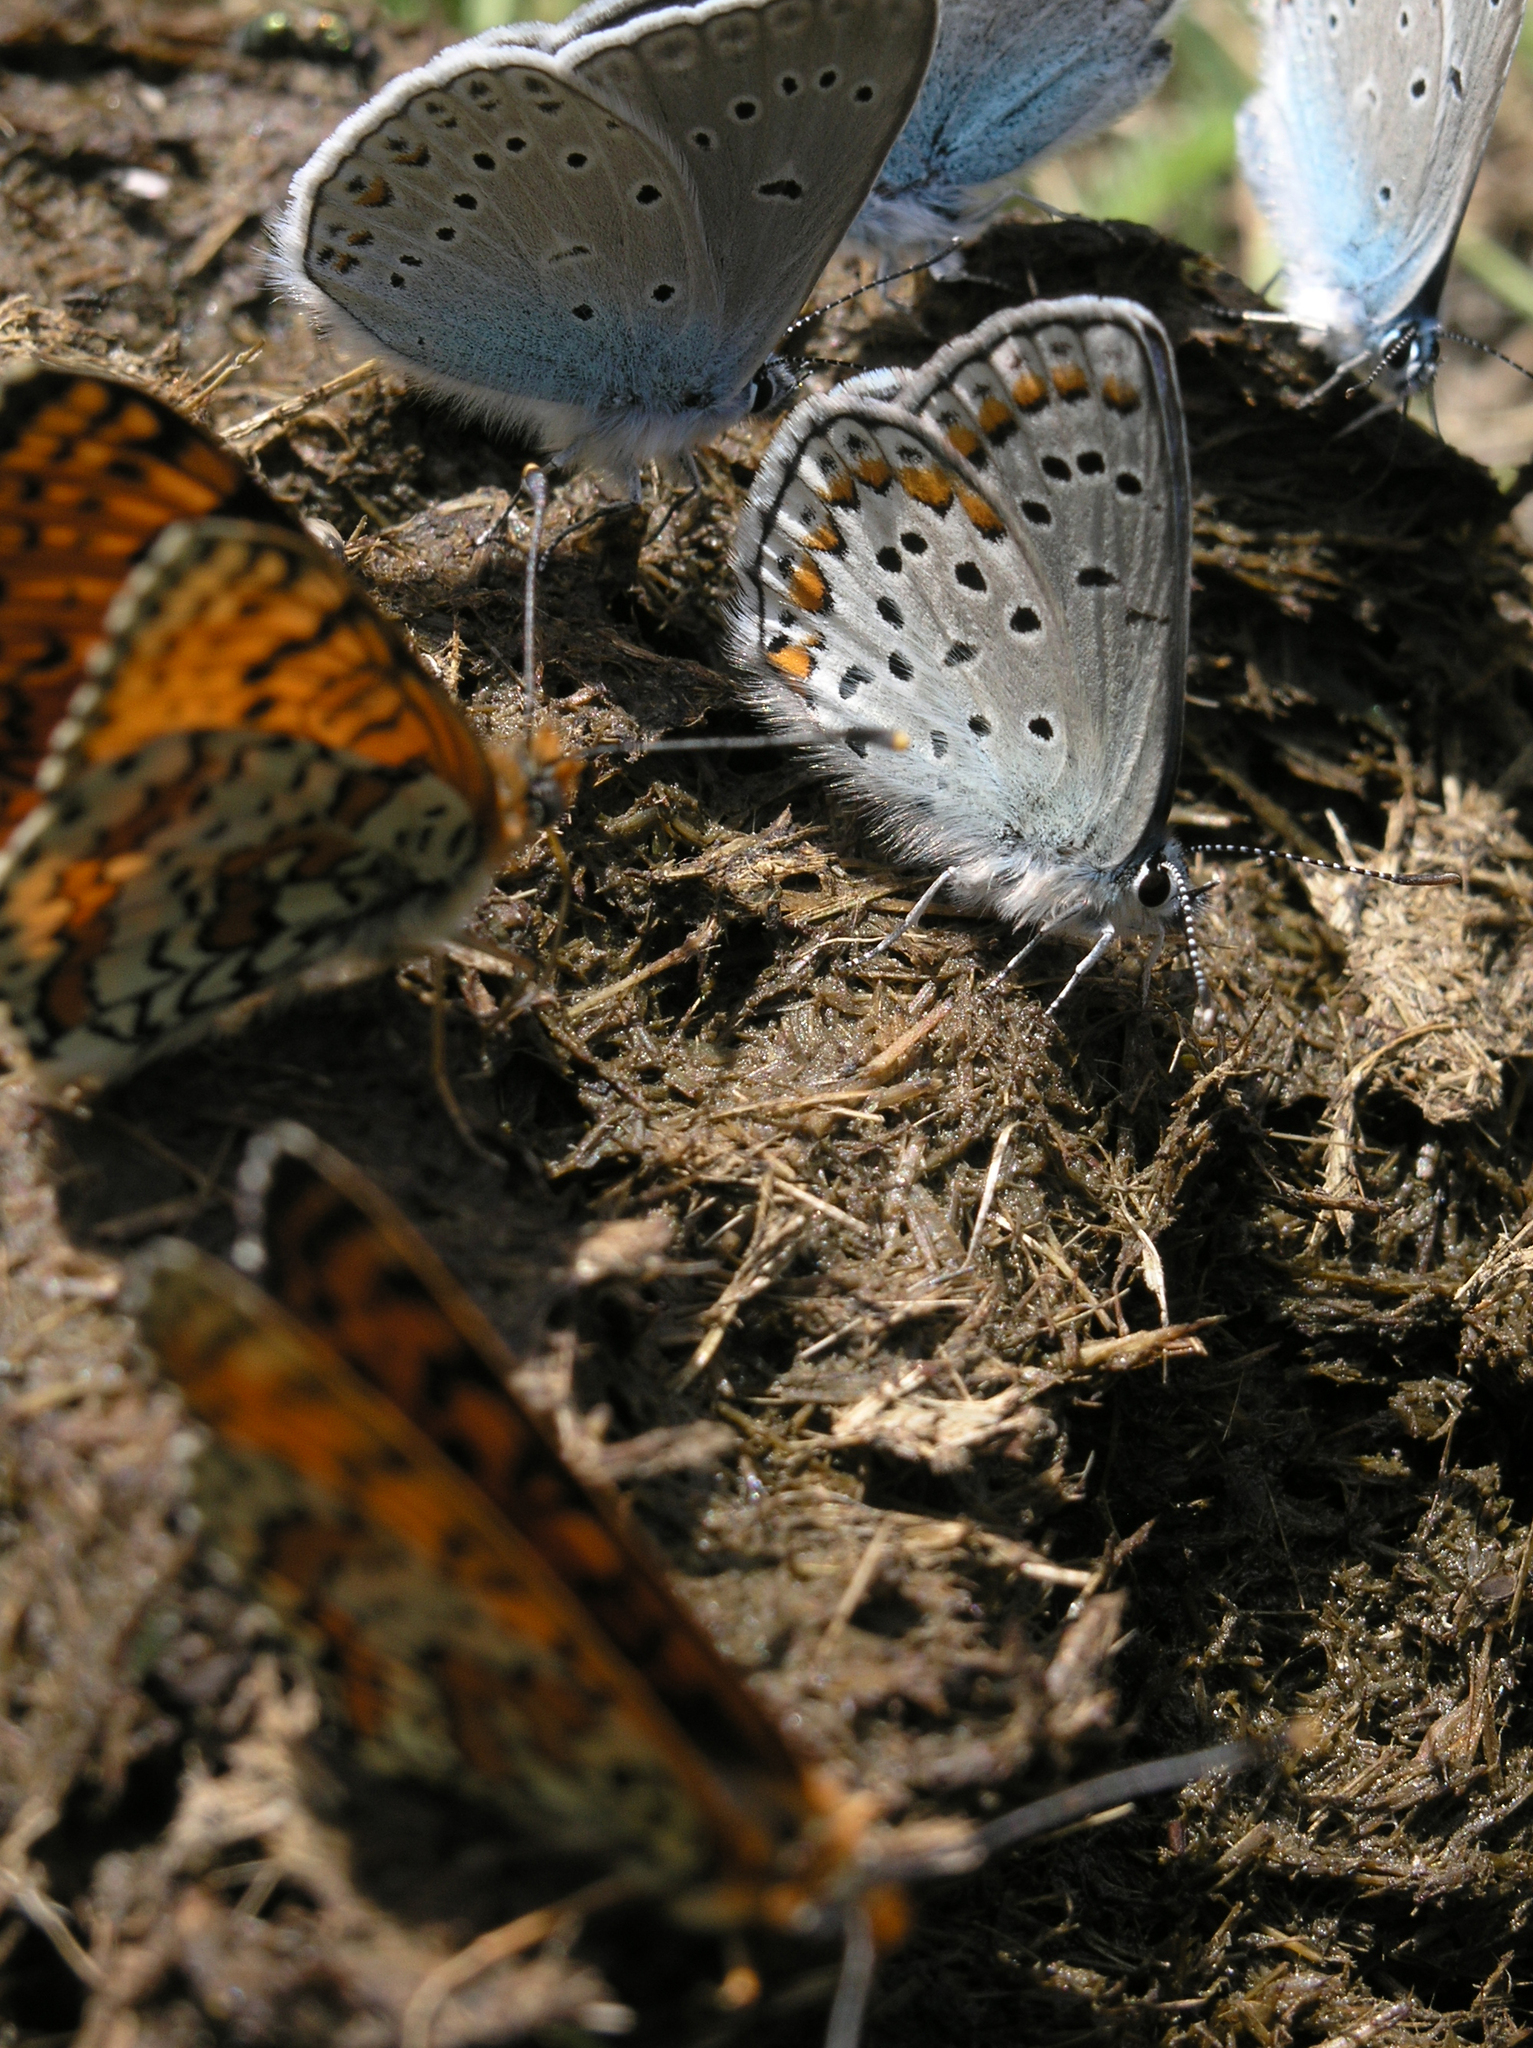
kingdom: Animalia
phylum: Arthropoda
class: Insecta
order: Lepidoptera
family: Nymphalidae
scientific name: Nymphalidae
